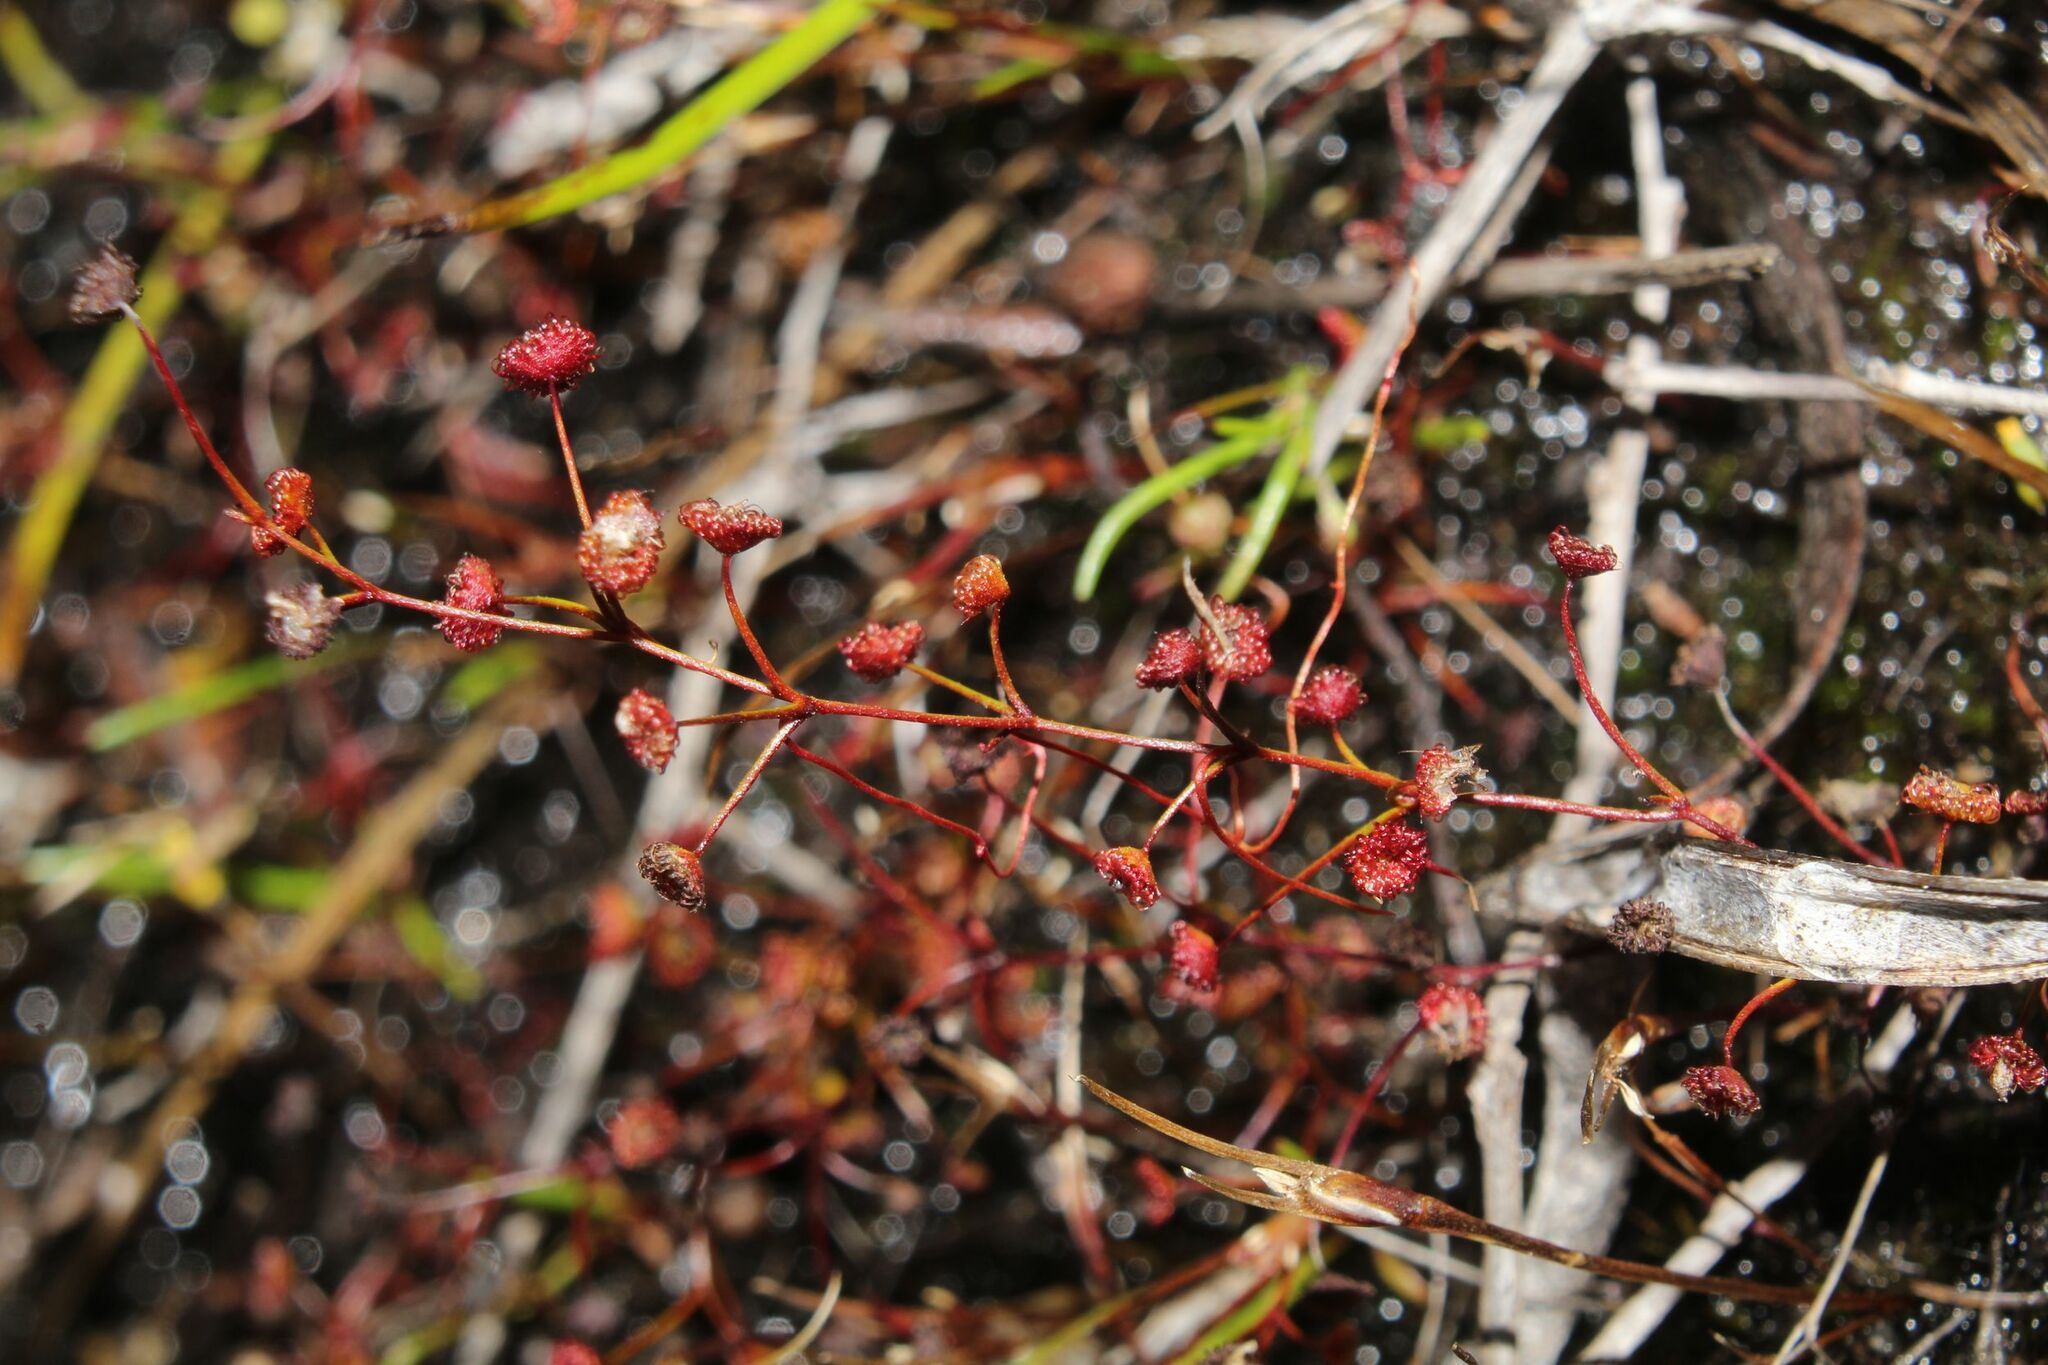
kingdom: Plantae
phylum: Tracheophyta
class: Magnoliopsida
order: Caryophyllales
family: Droseraceae
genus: Drosera
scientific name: Drosera moorei
